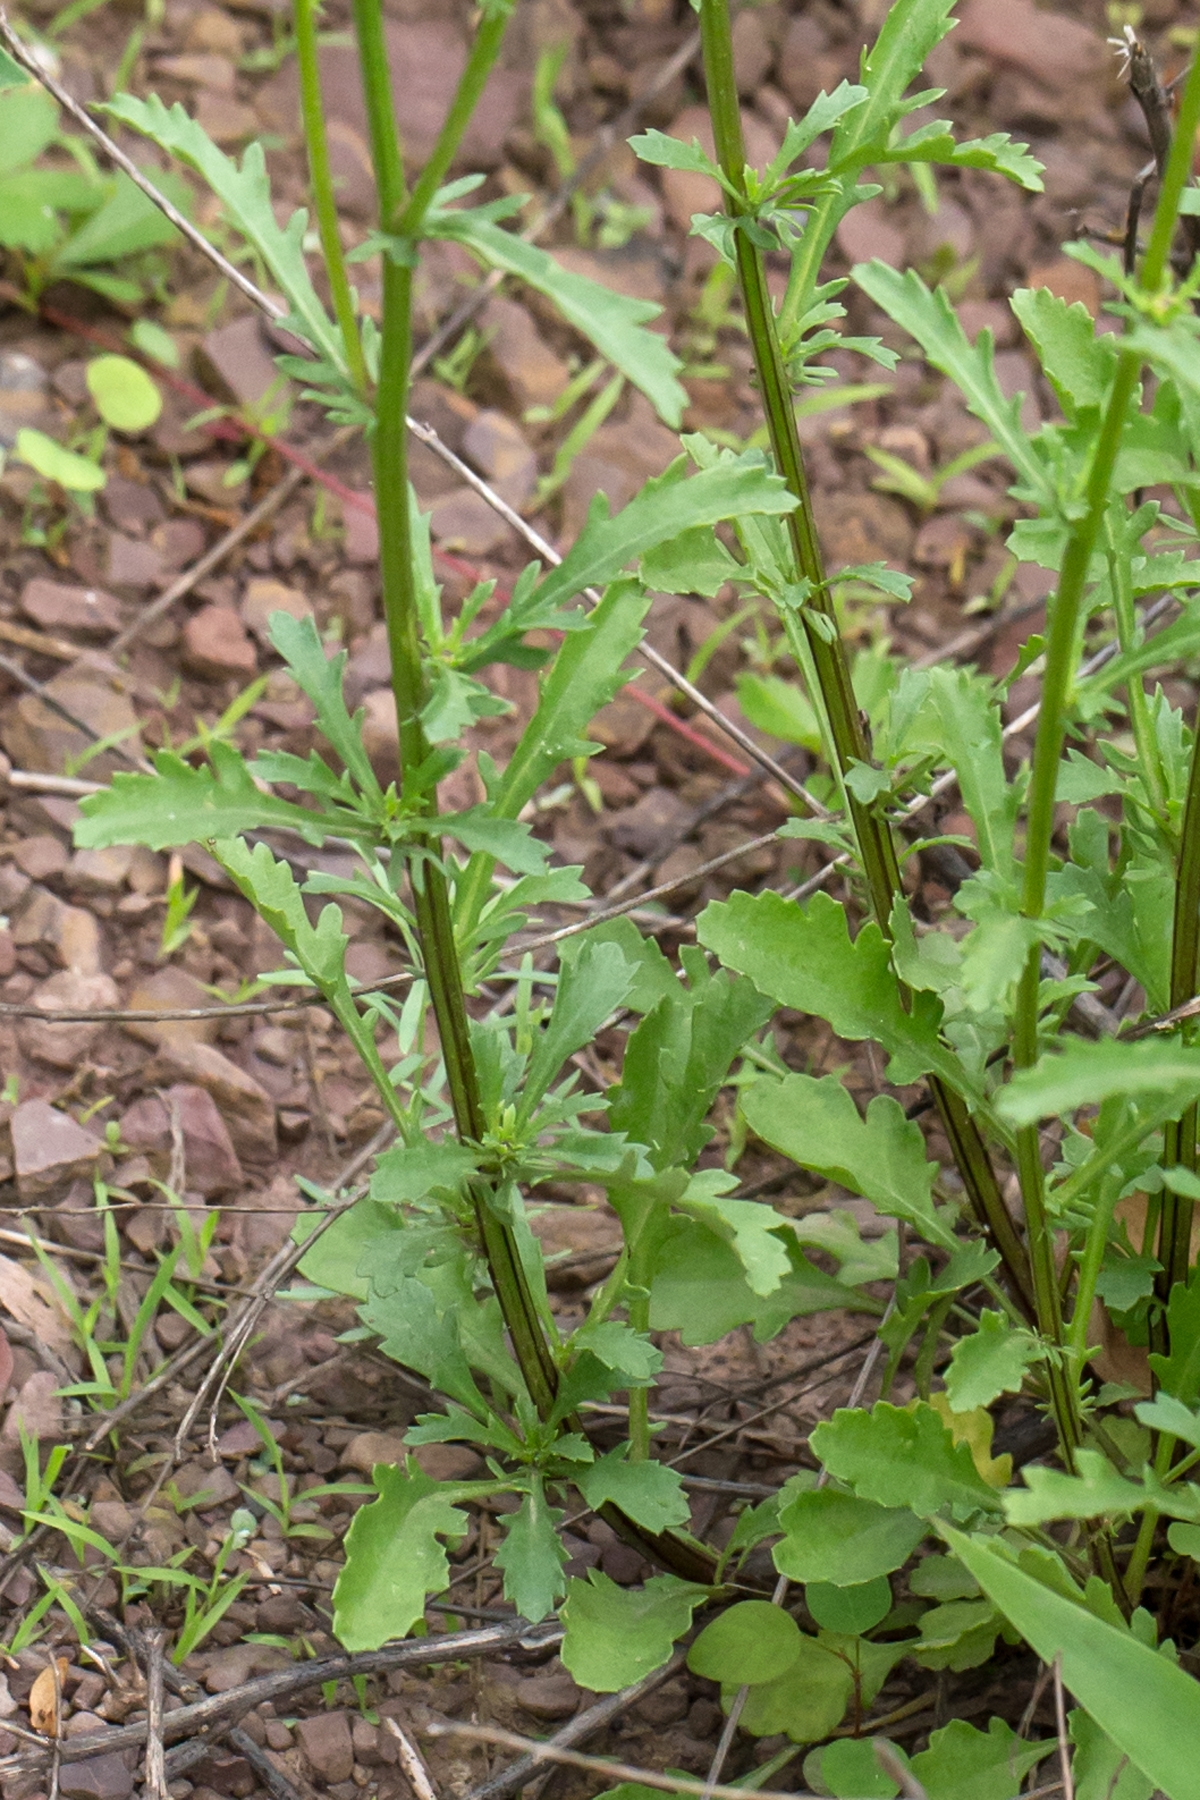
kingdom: Plantae
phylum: Tracheophyta
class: Magnoliopsida
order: Asterales
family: Asteraceae
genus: Leucanthemum
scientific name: Leucanthemum vulgare
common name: Oxeye daisy
